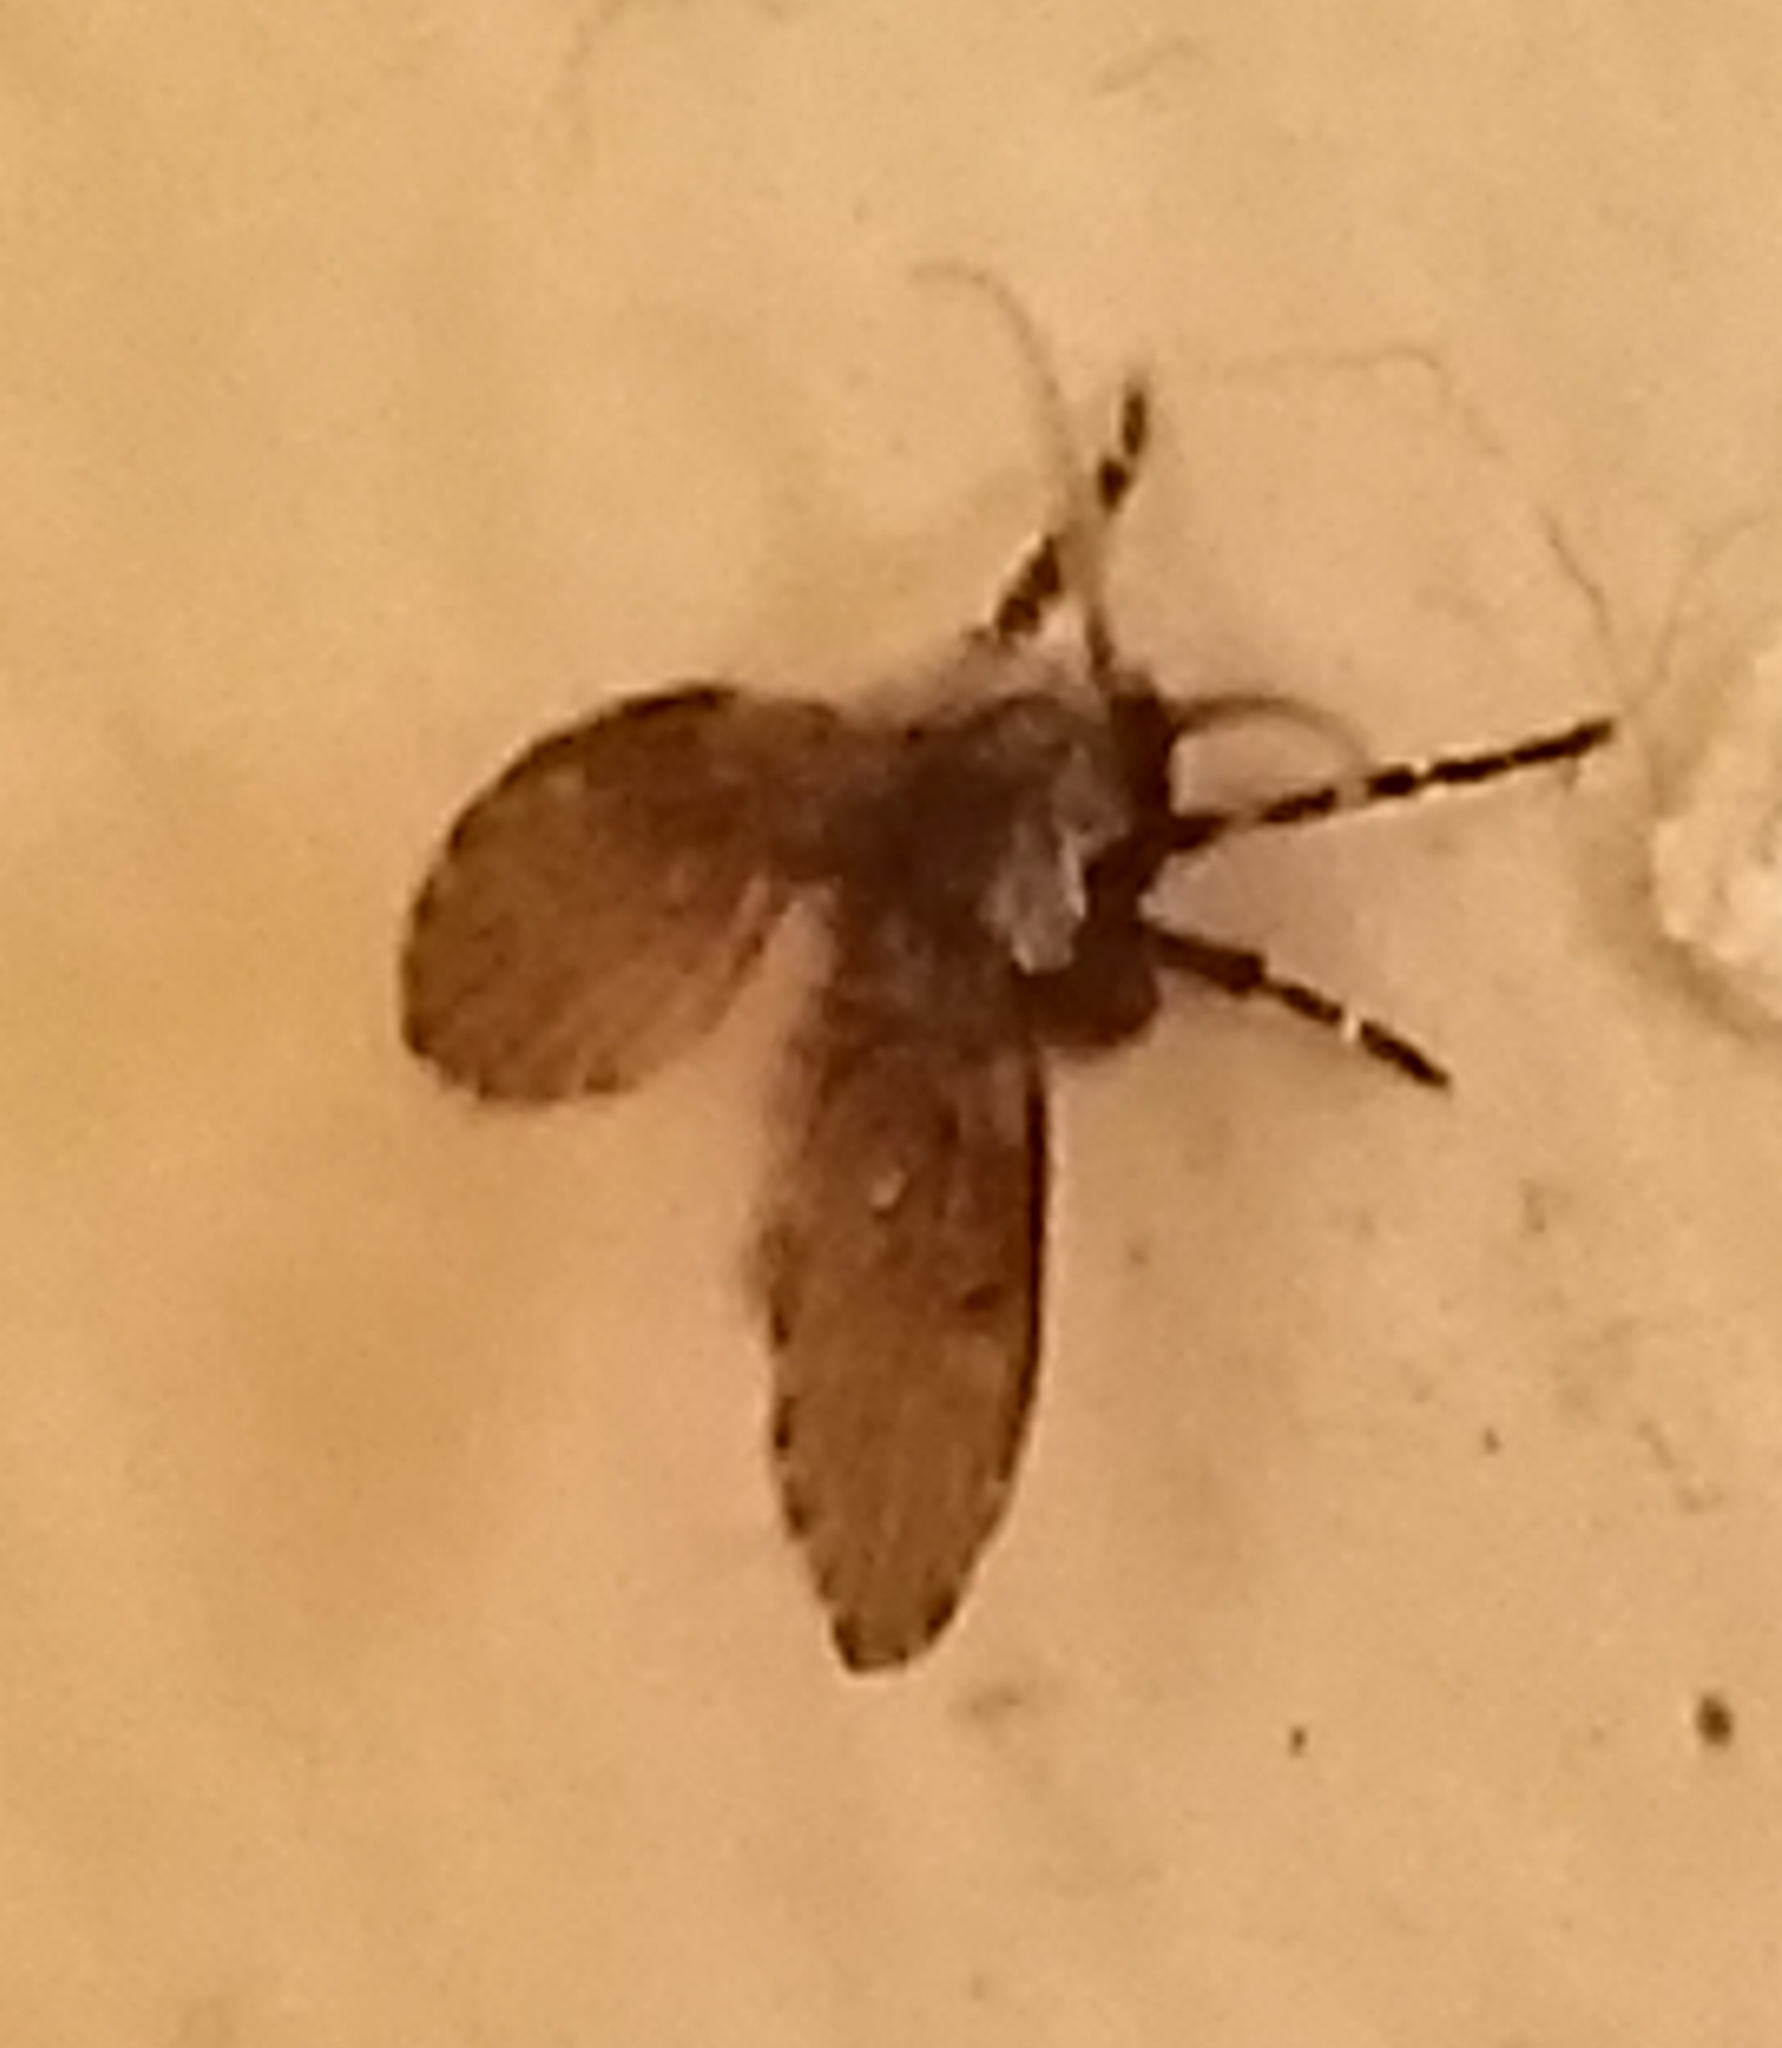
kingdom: Animalia
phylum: Arthropoda
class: Insecta
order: Diptera
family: Psychodidae
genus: Clogmia
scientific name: Clogmia albipunctatus
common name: White-spotted moth fly
